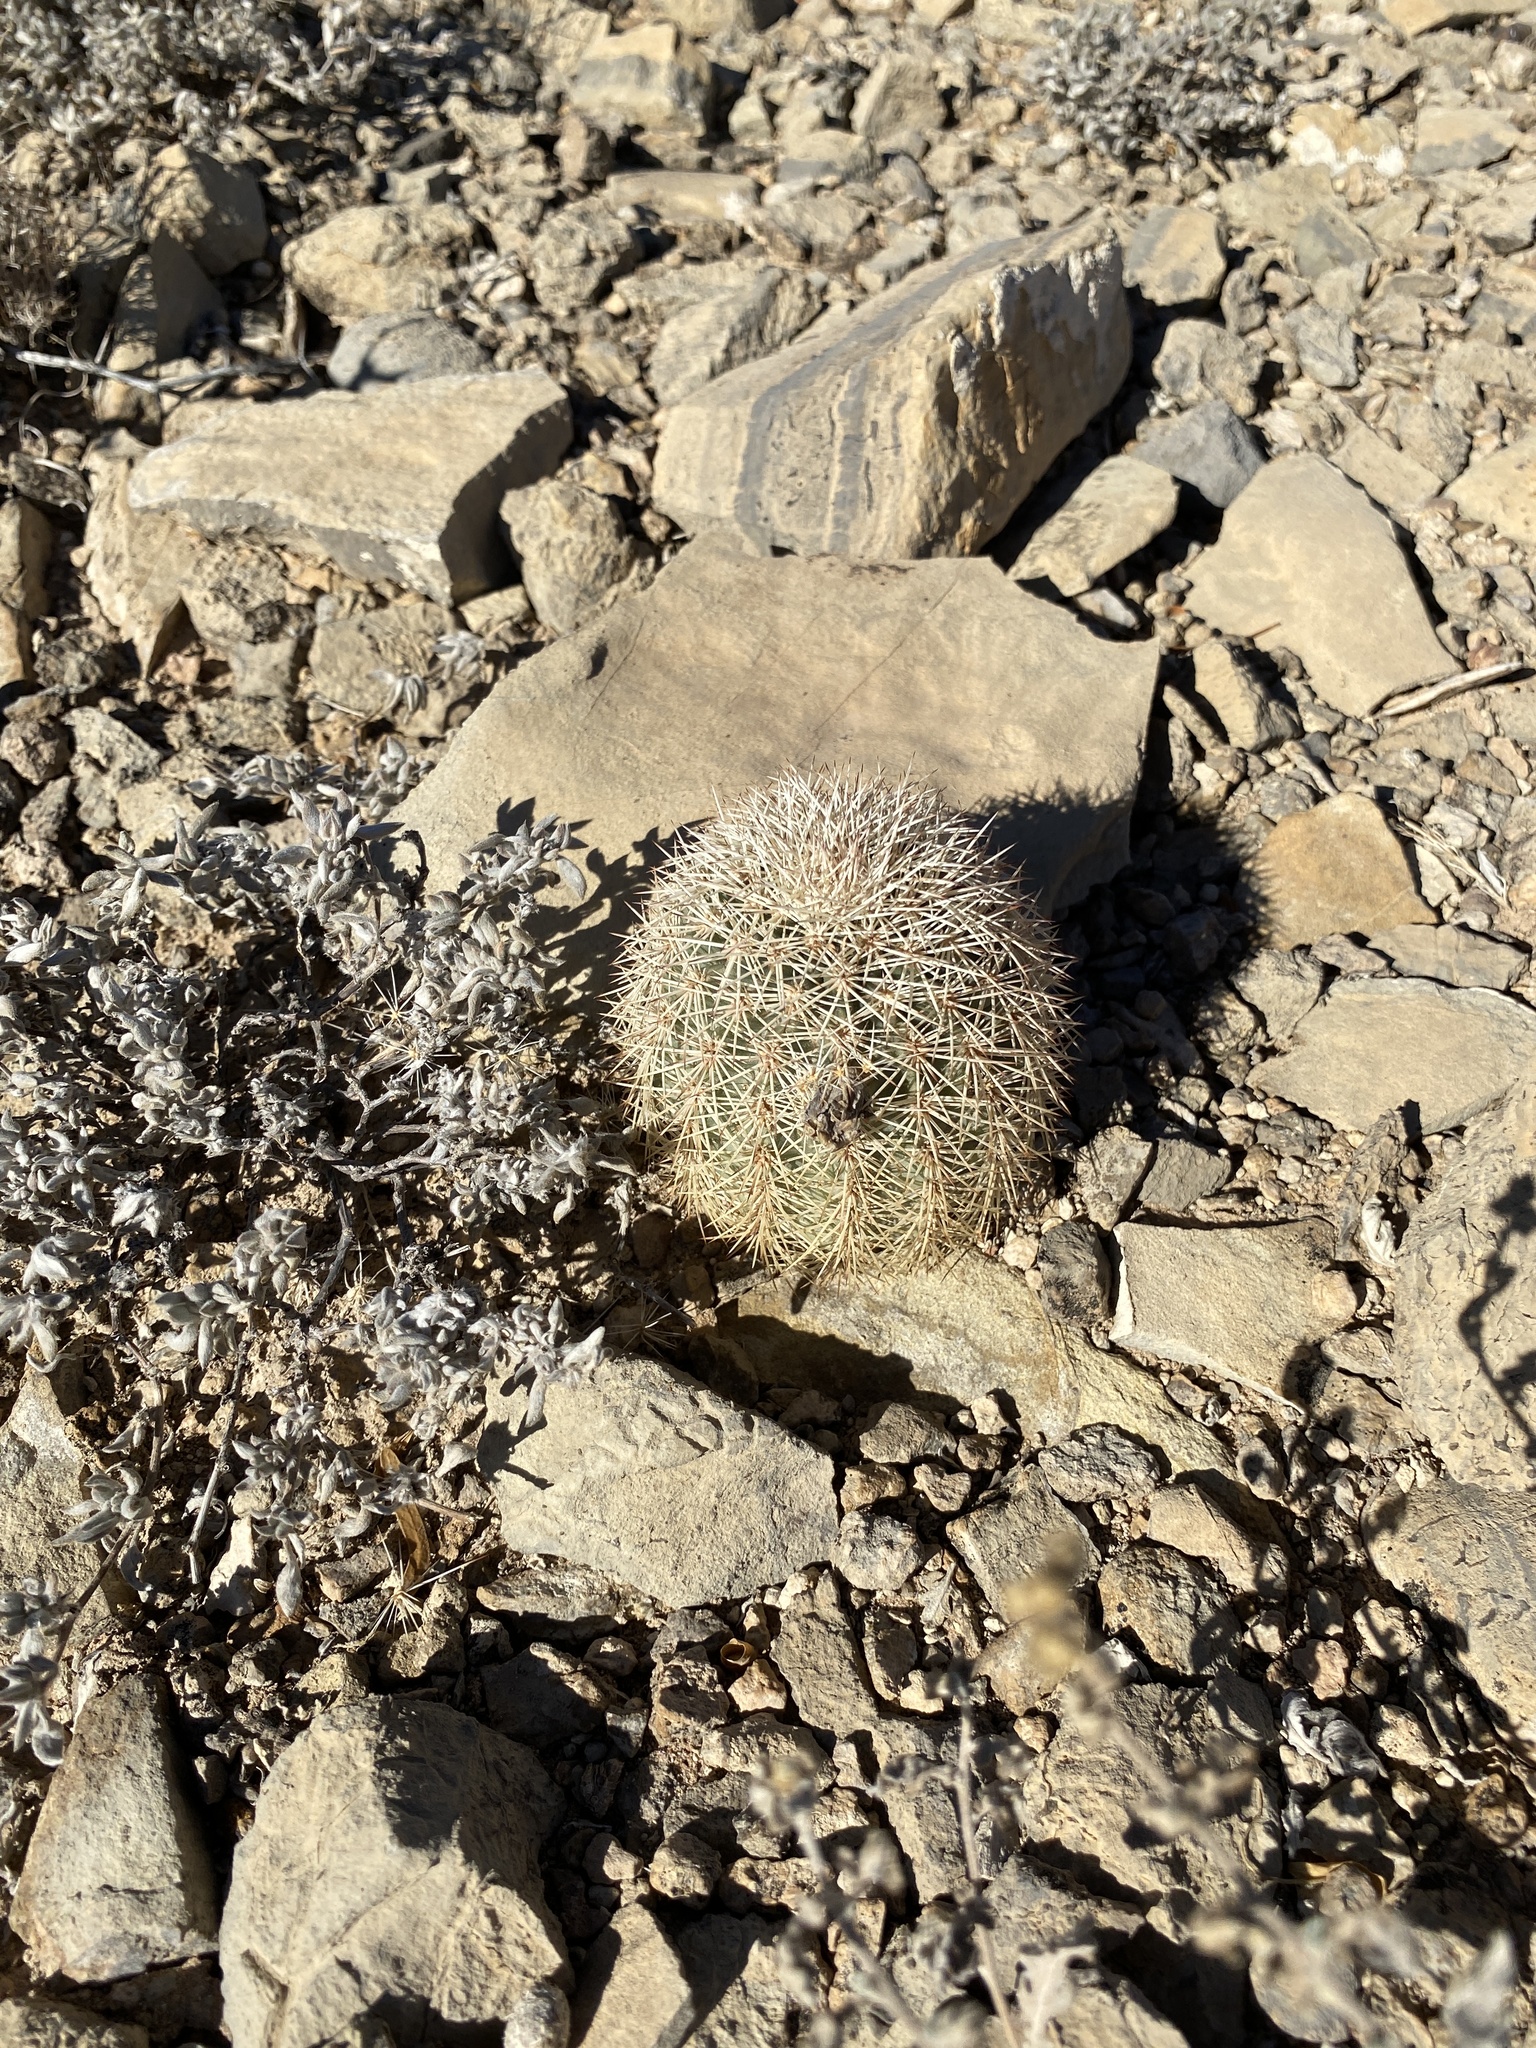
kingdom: Plantae
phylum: Tracheophyta
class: Magnoliopsida
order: Caryophyllales
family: Cactaceae
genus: Echinocereus
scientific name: Echinocereus dasyacanthus
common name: Spiny hedgehog cactus
